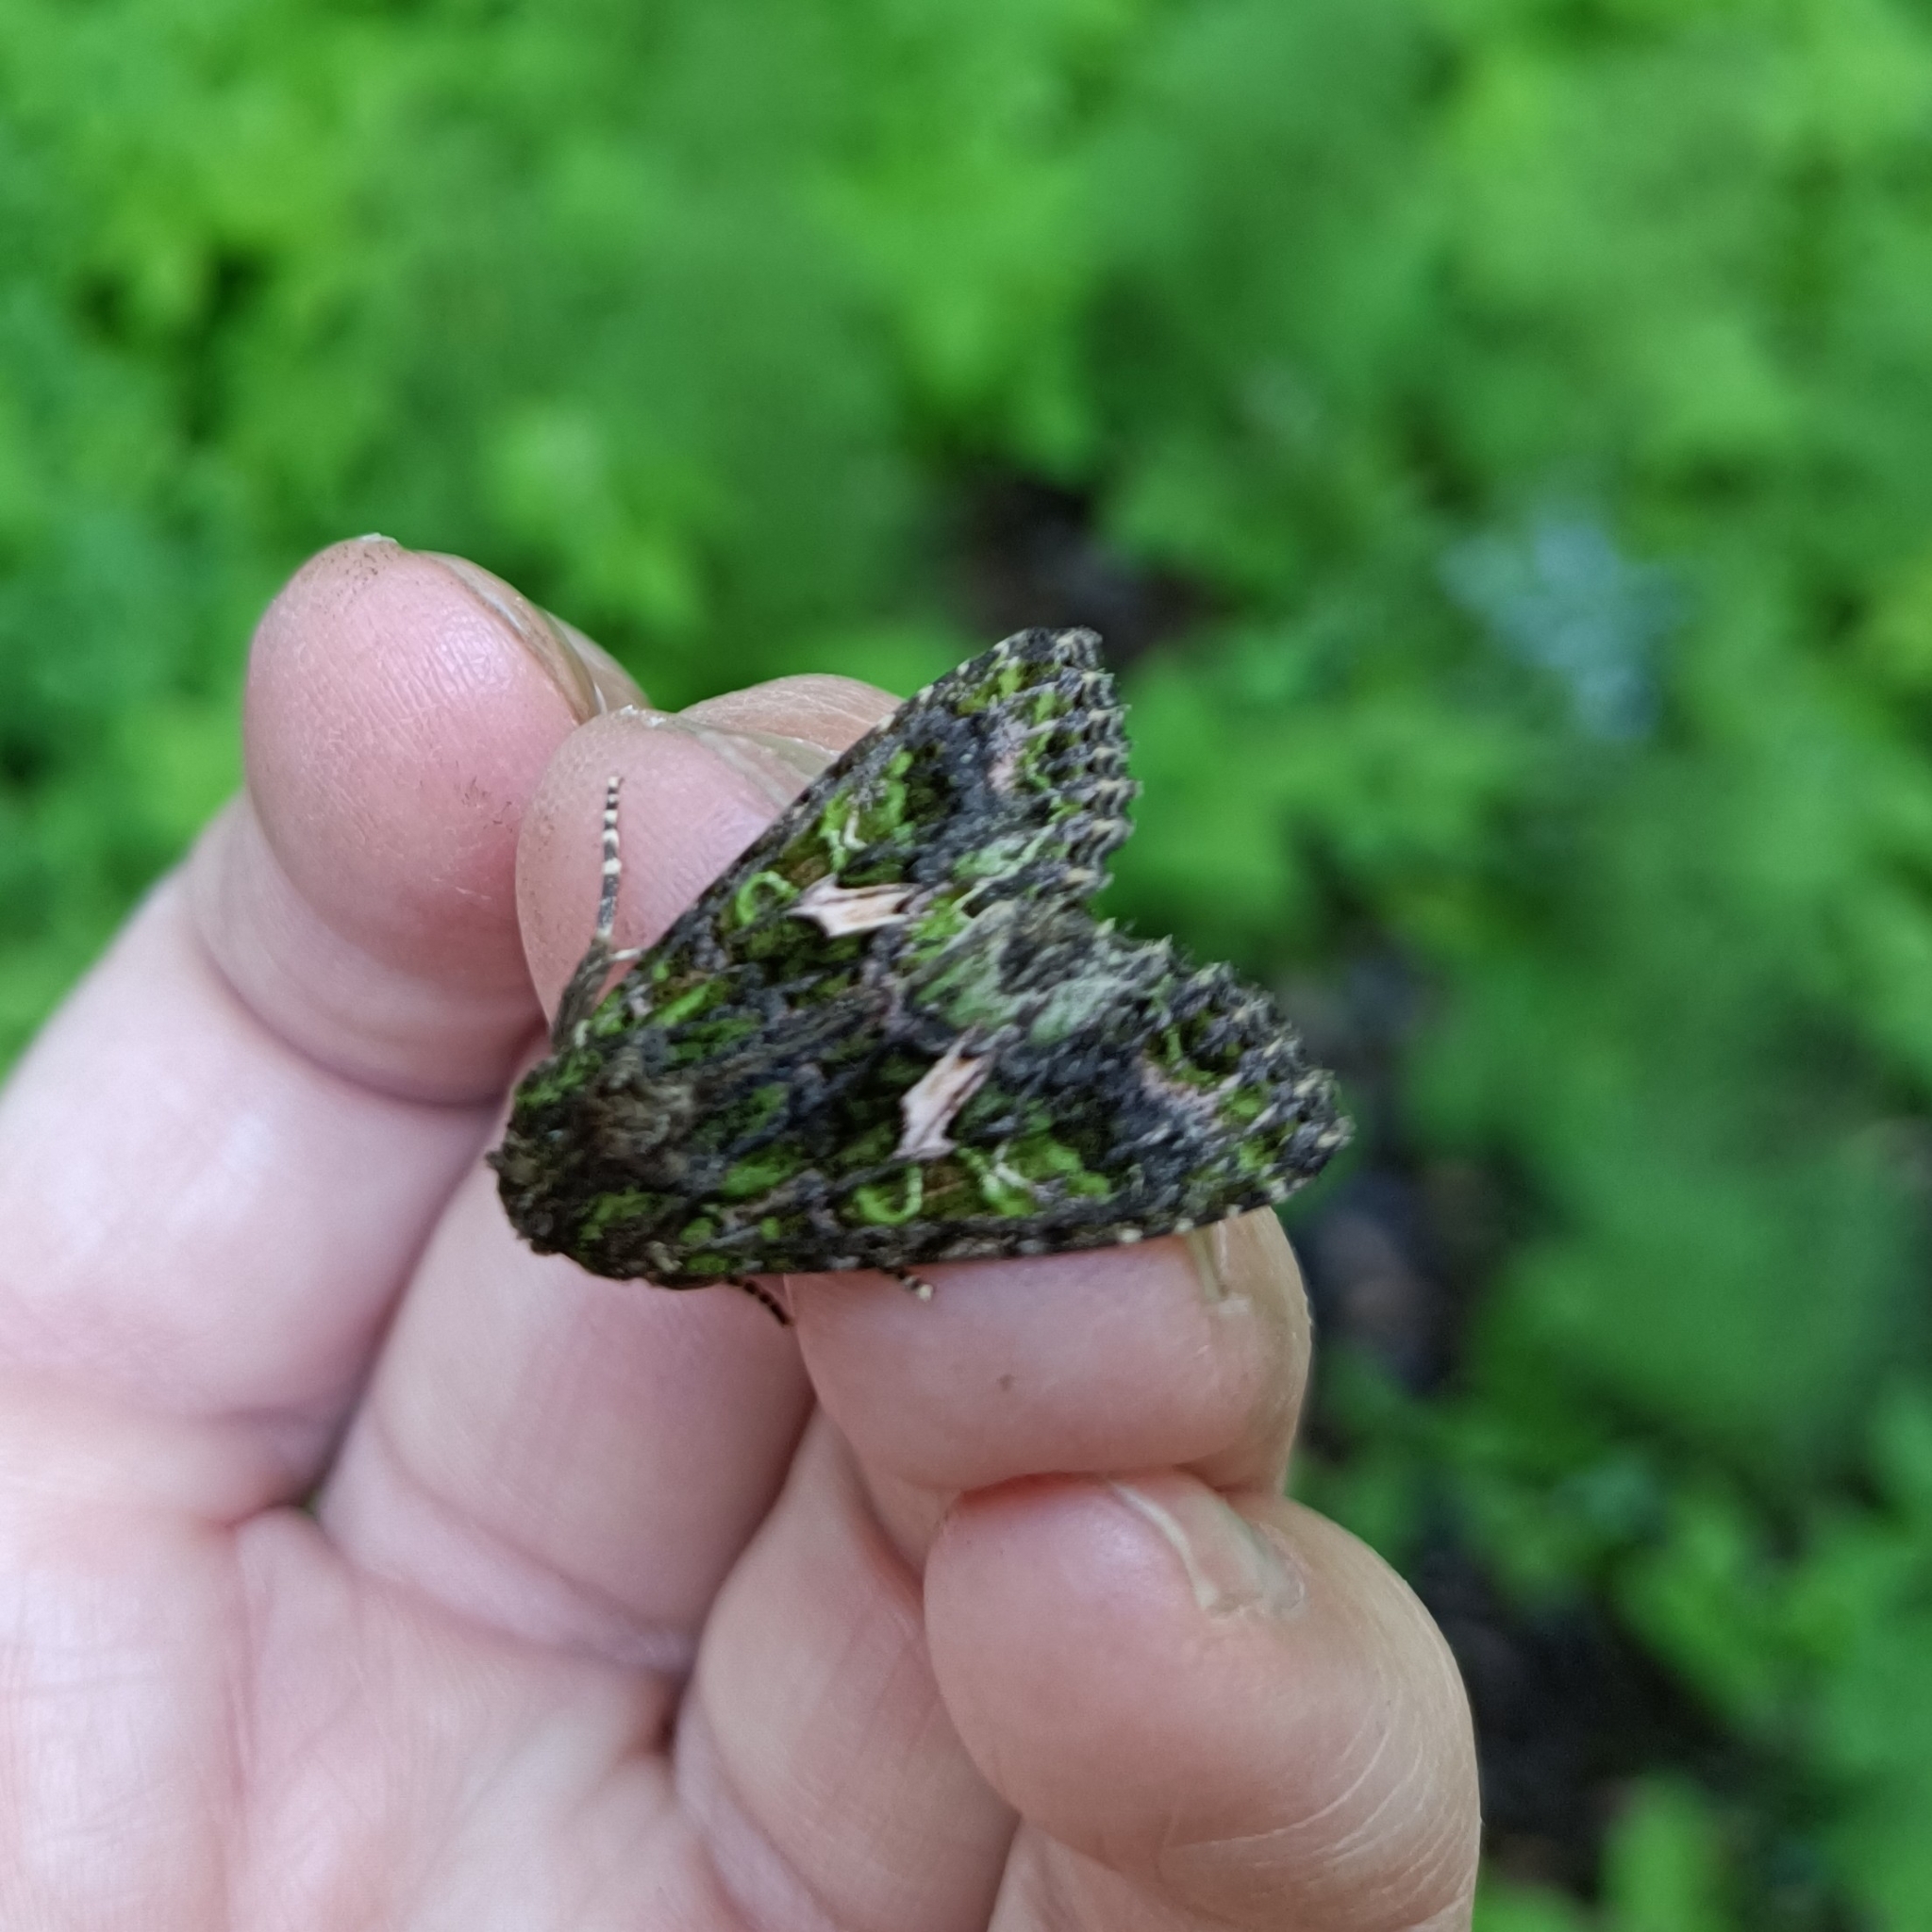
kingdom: Animalia
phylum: Arthropoda
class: Insecta
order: Lepidoptera
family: Noctuidae
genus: Trachea
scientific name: Trachea atriplicis
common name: Orache moth
